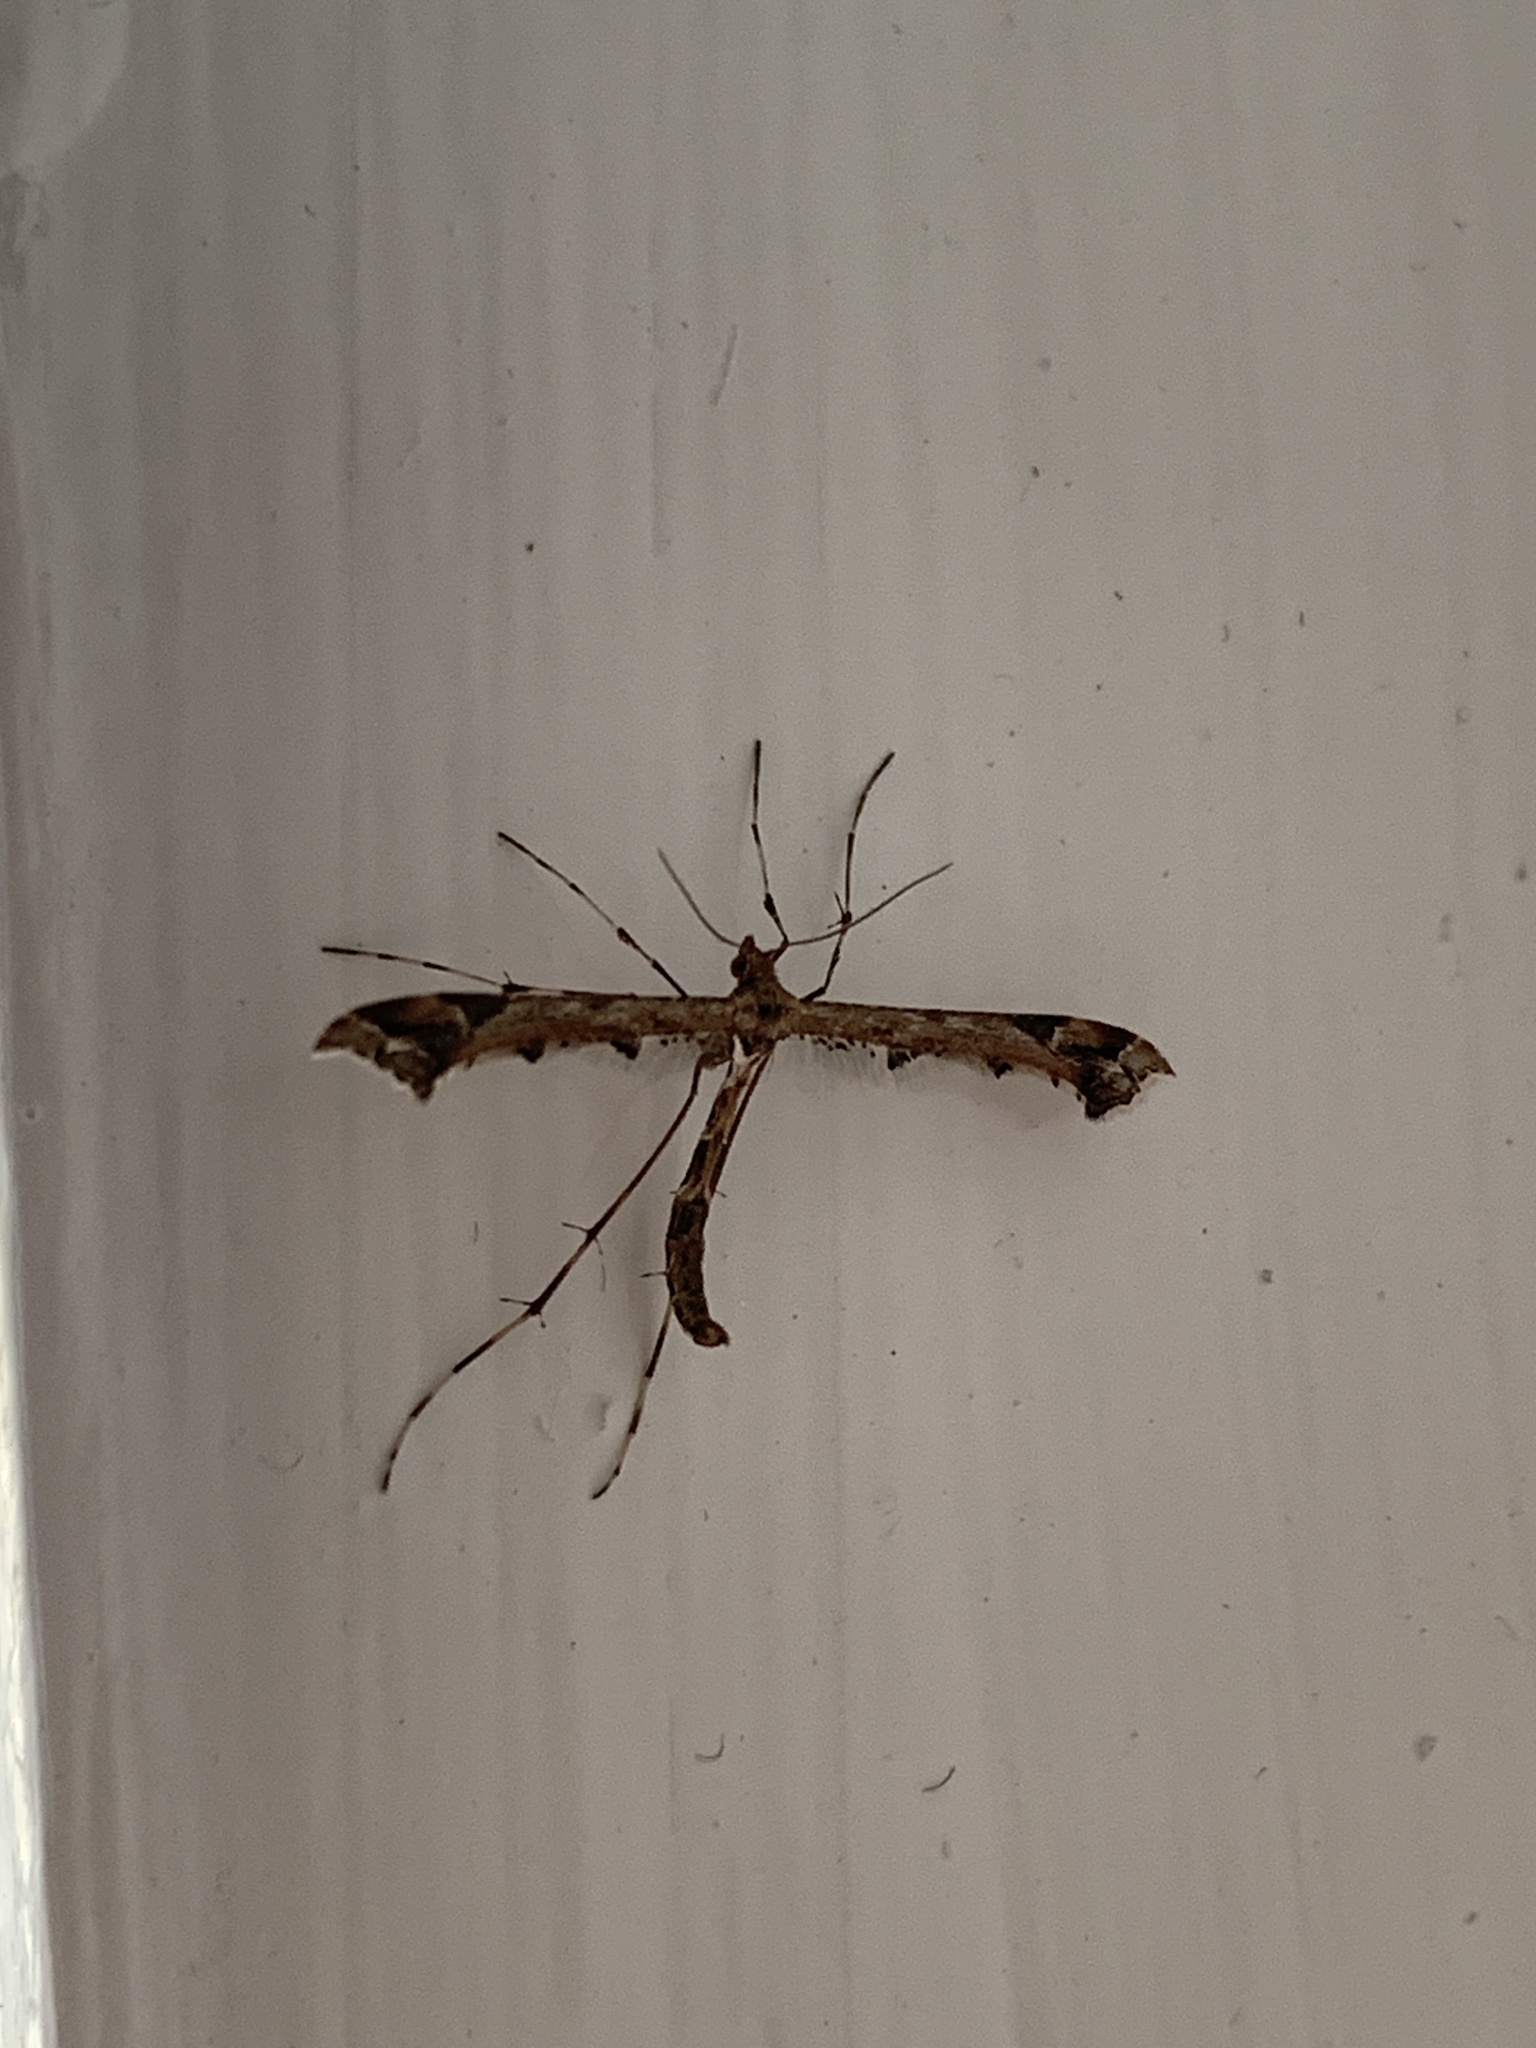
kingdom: Animalia
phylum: Arthropoda
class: Insecta
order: Lepidoptera
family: Pterophoridae
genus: Amblyptilia
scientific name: Amblyptilia acanthadactyla
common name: Beautiful plume
